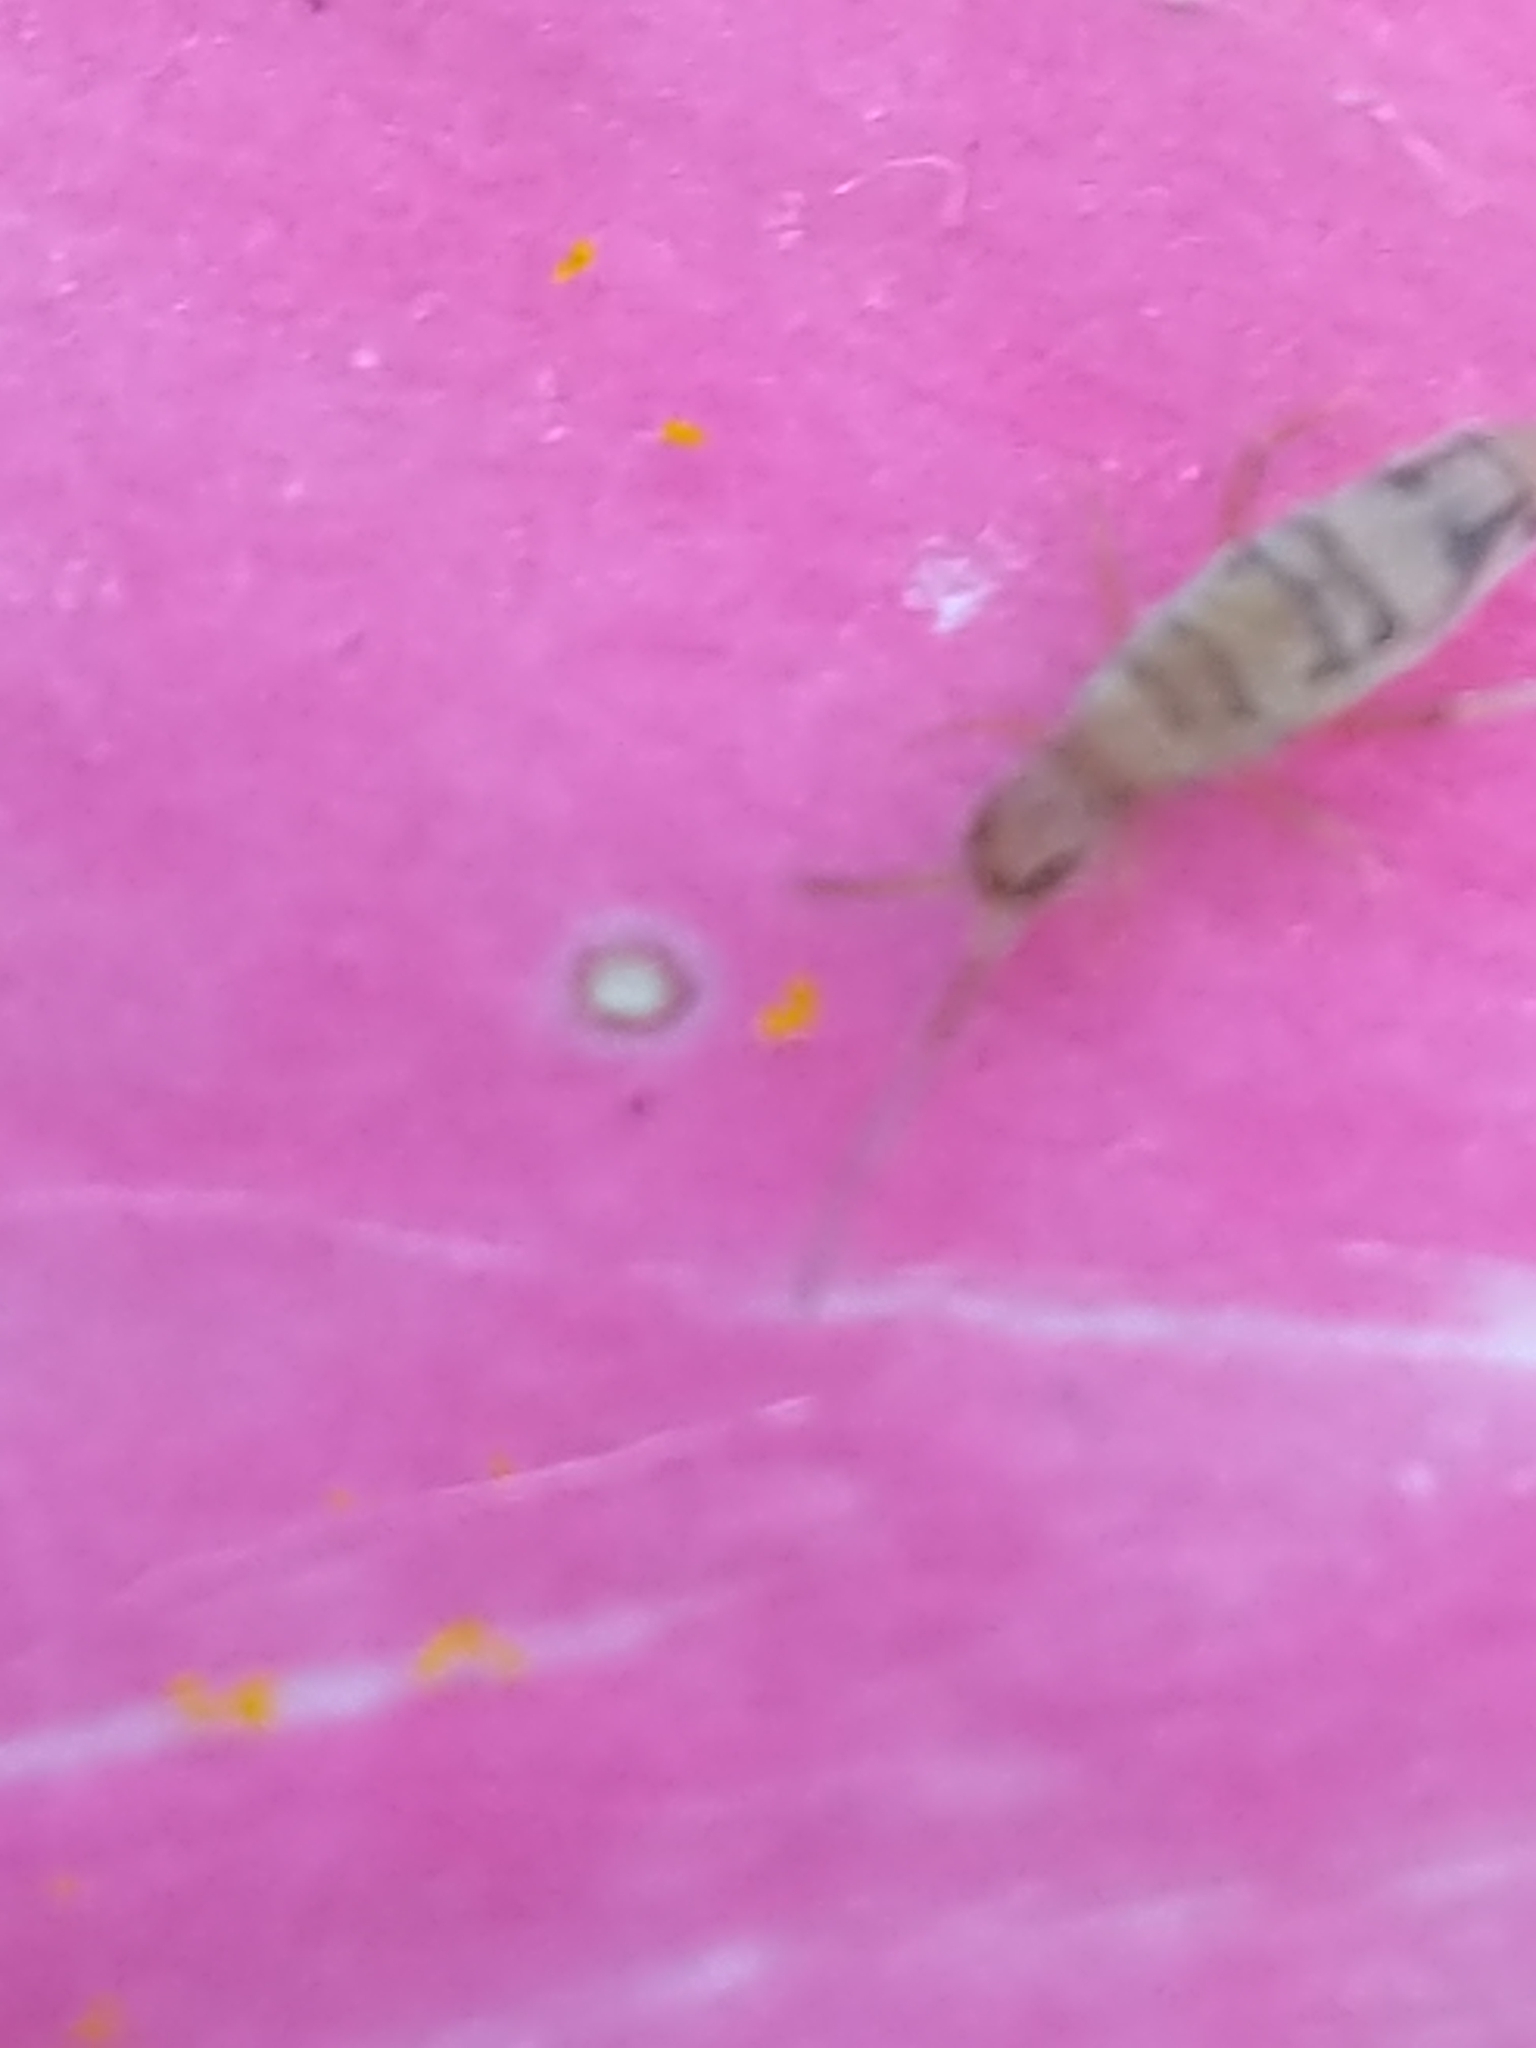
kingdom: Animalia
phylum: Arthropoda
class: Collembola
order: Entomobryomorpha
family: Entomobryidae
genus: Entomobrya
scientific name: Entomobrya nivalis
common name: Cosmopolitan springtail
